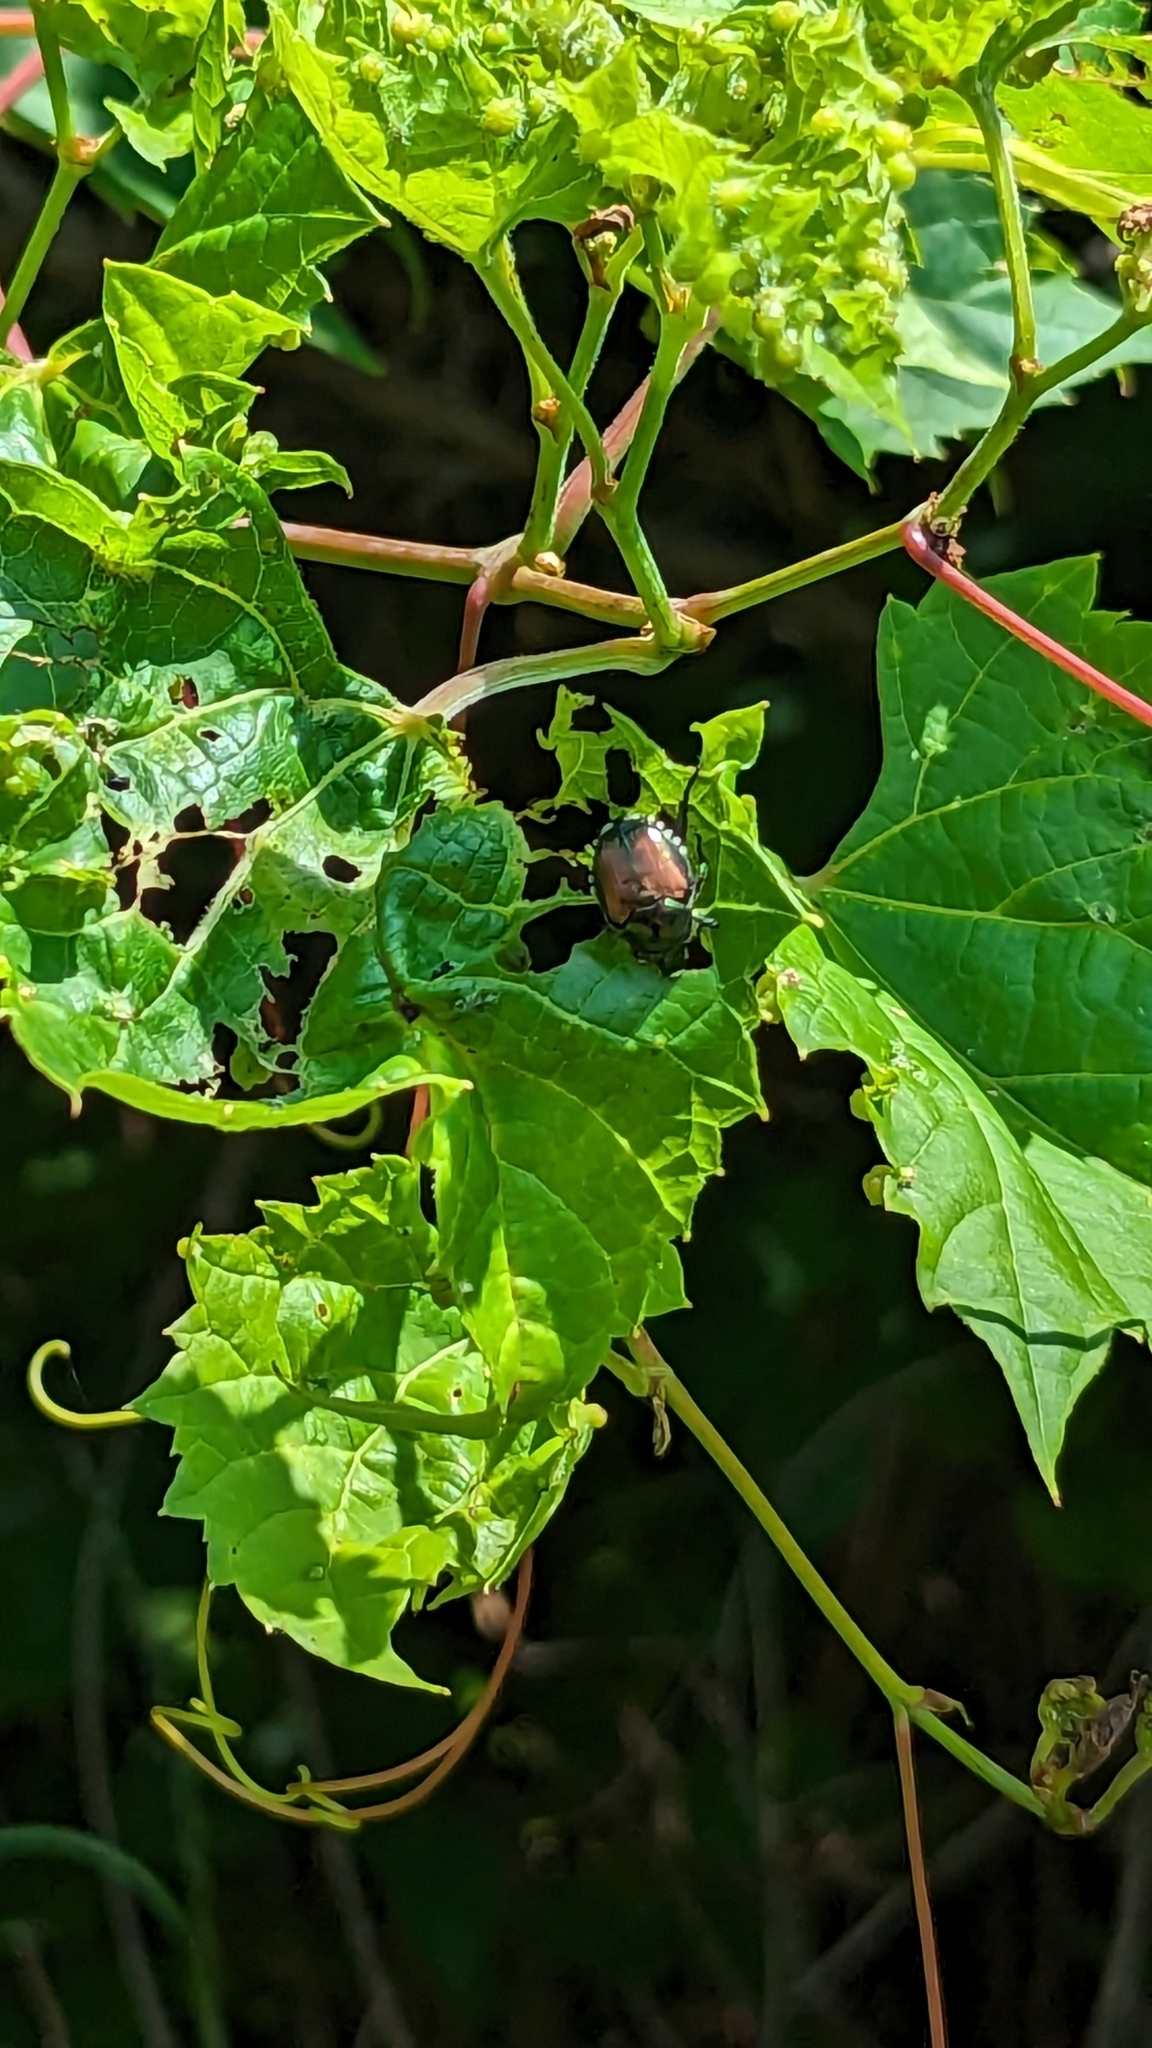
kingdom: Animalia
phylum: Arthropoda
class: Insecta
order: Coleoptera
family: Scarabaeidae
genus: Popillia
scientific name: Popillia japonica
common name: Japanese beetle
